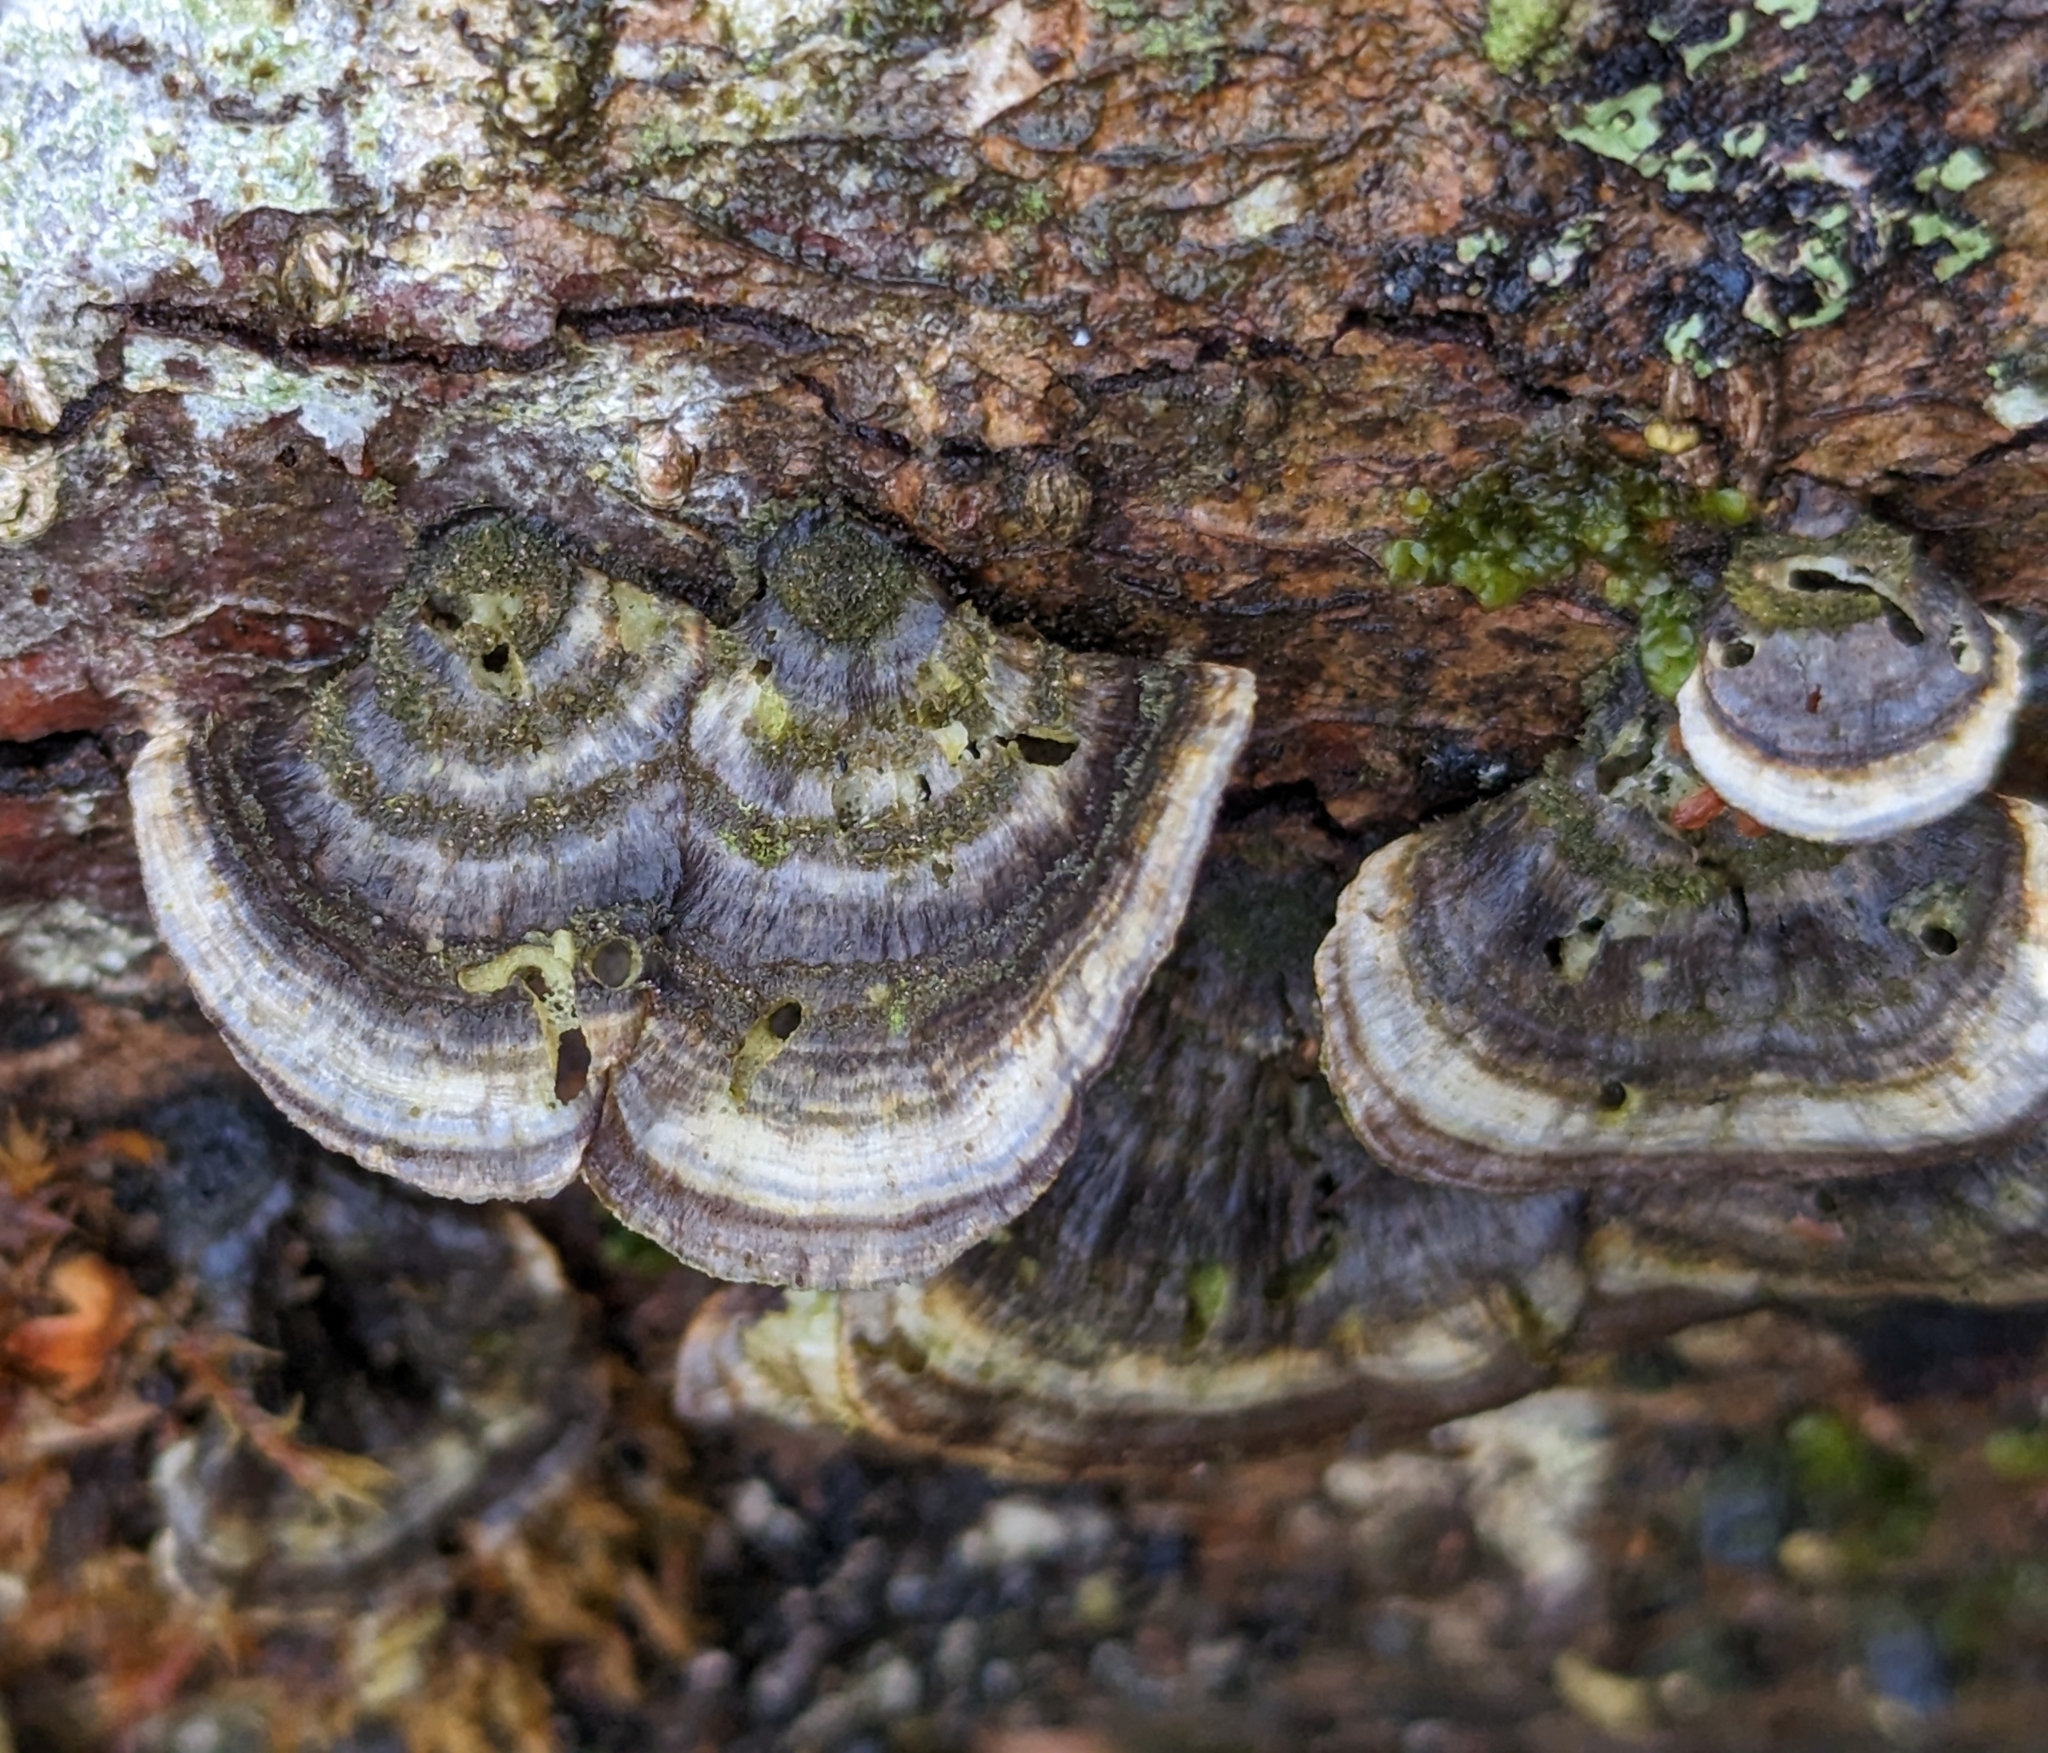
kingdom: Fungi
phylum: Basidiomycota
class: Agaricomycetes
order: Polyporales
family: Polyporaceae
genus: Trametes
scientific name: Trametes versicolor
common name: Turkeytail
